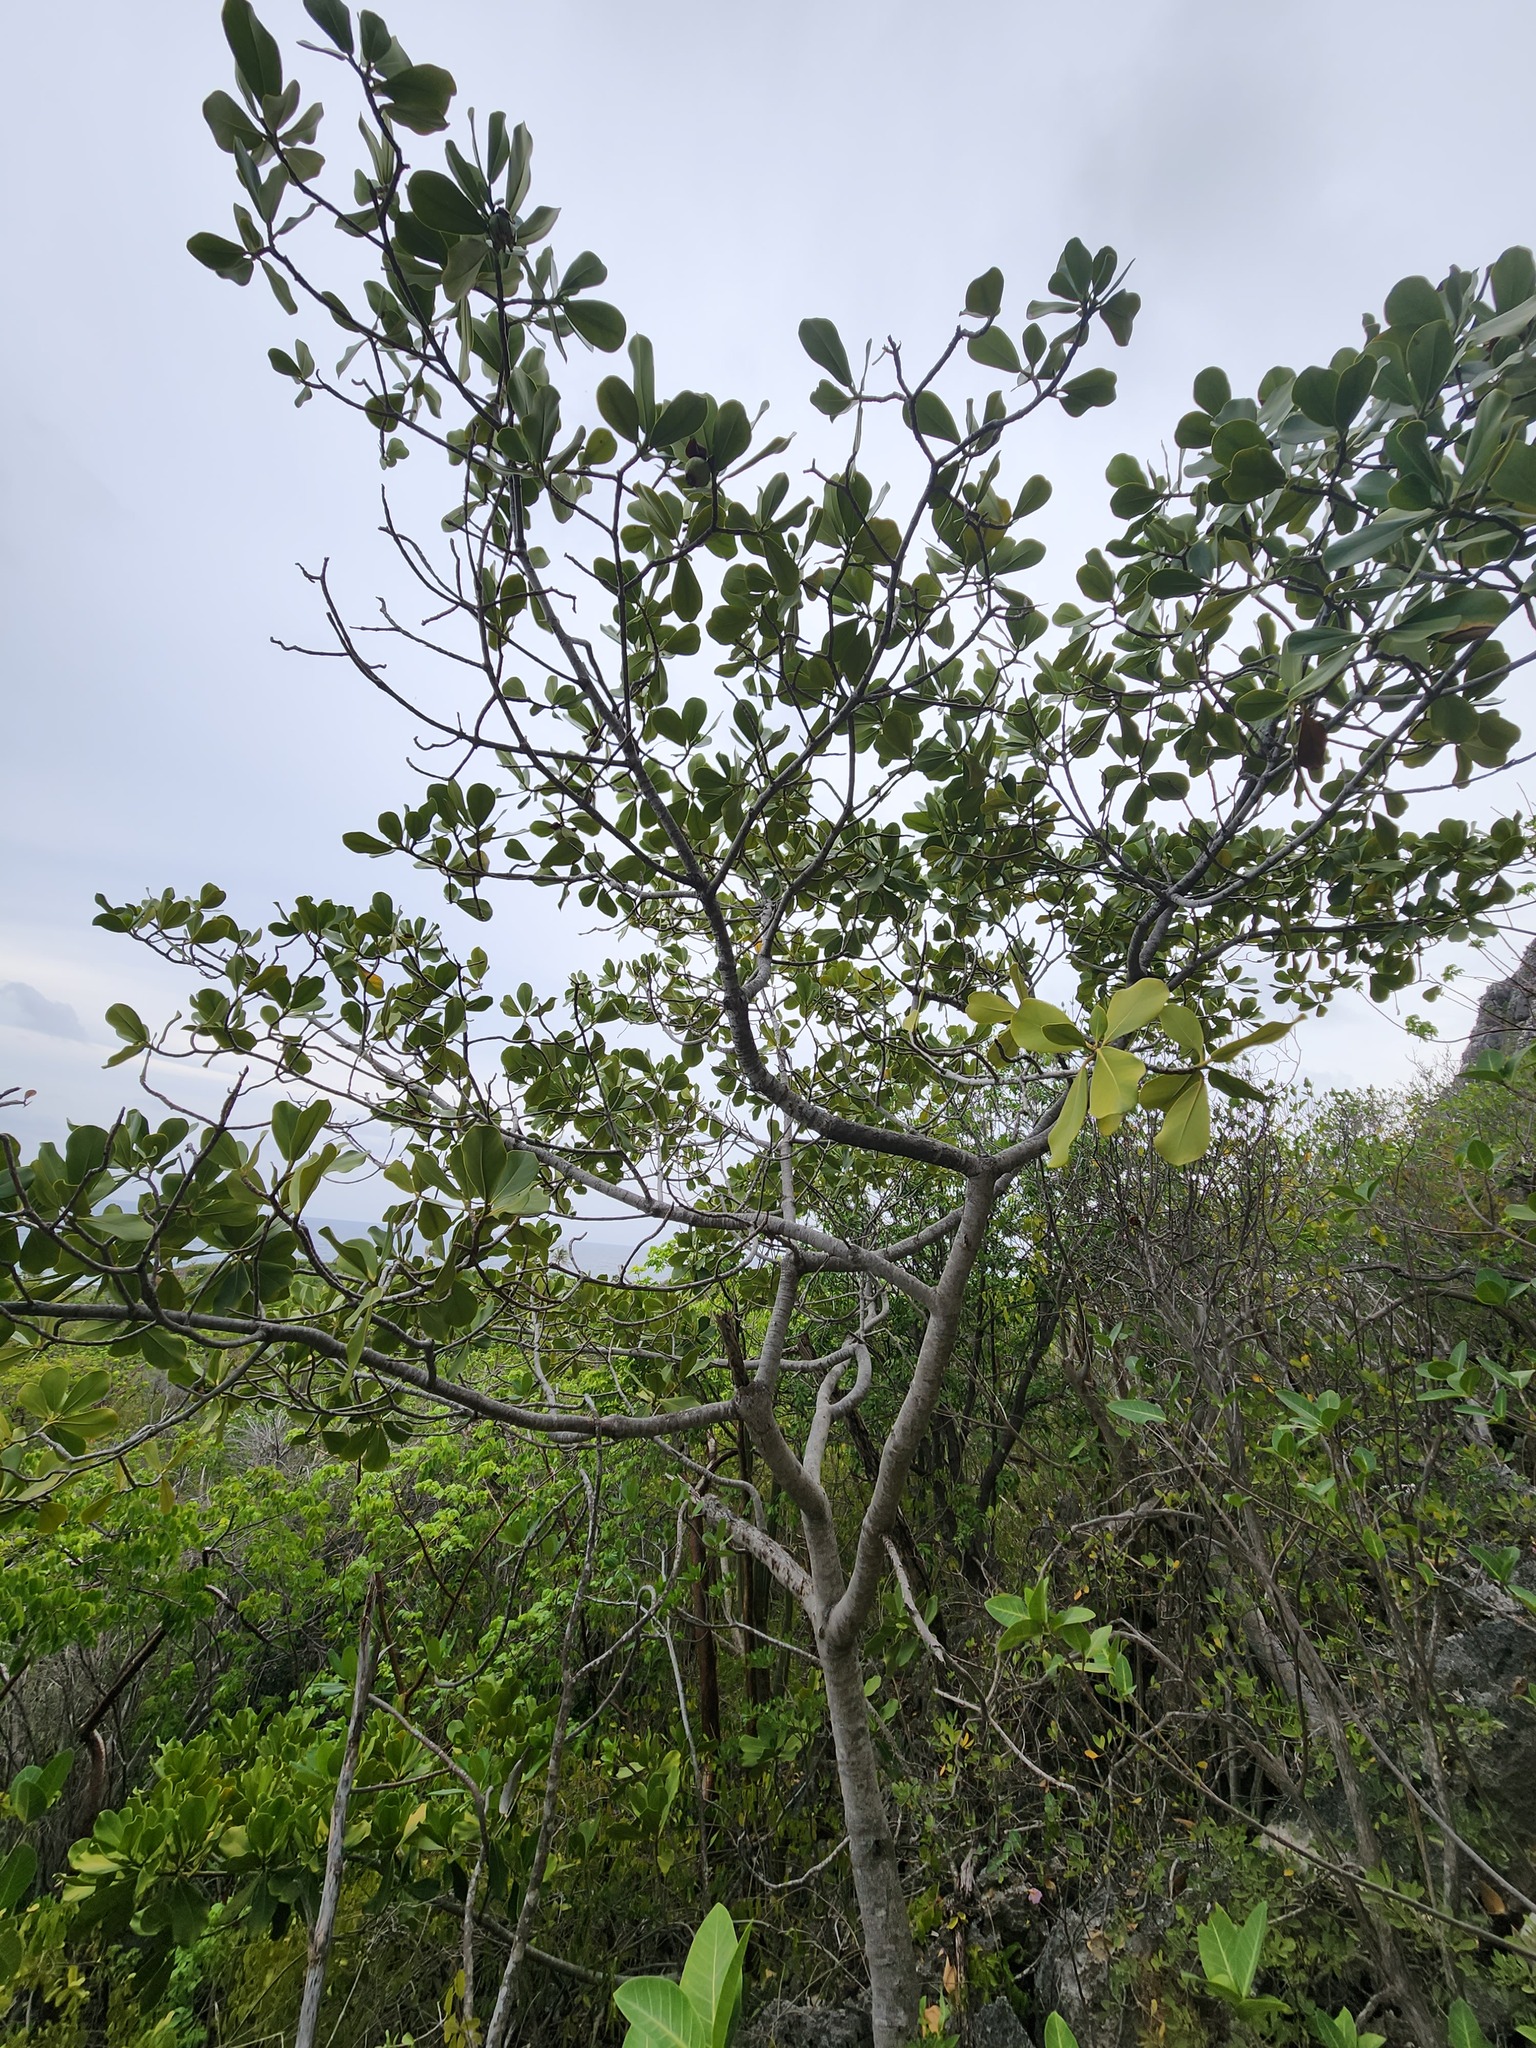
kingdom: Plantae
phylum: Tracheophyta
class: Magnoliopsida
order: Malpighiales
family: Clusiaceae
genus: Clusia
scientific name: Clusia rosea
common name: Scotch attorney
